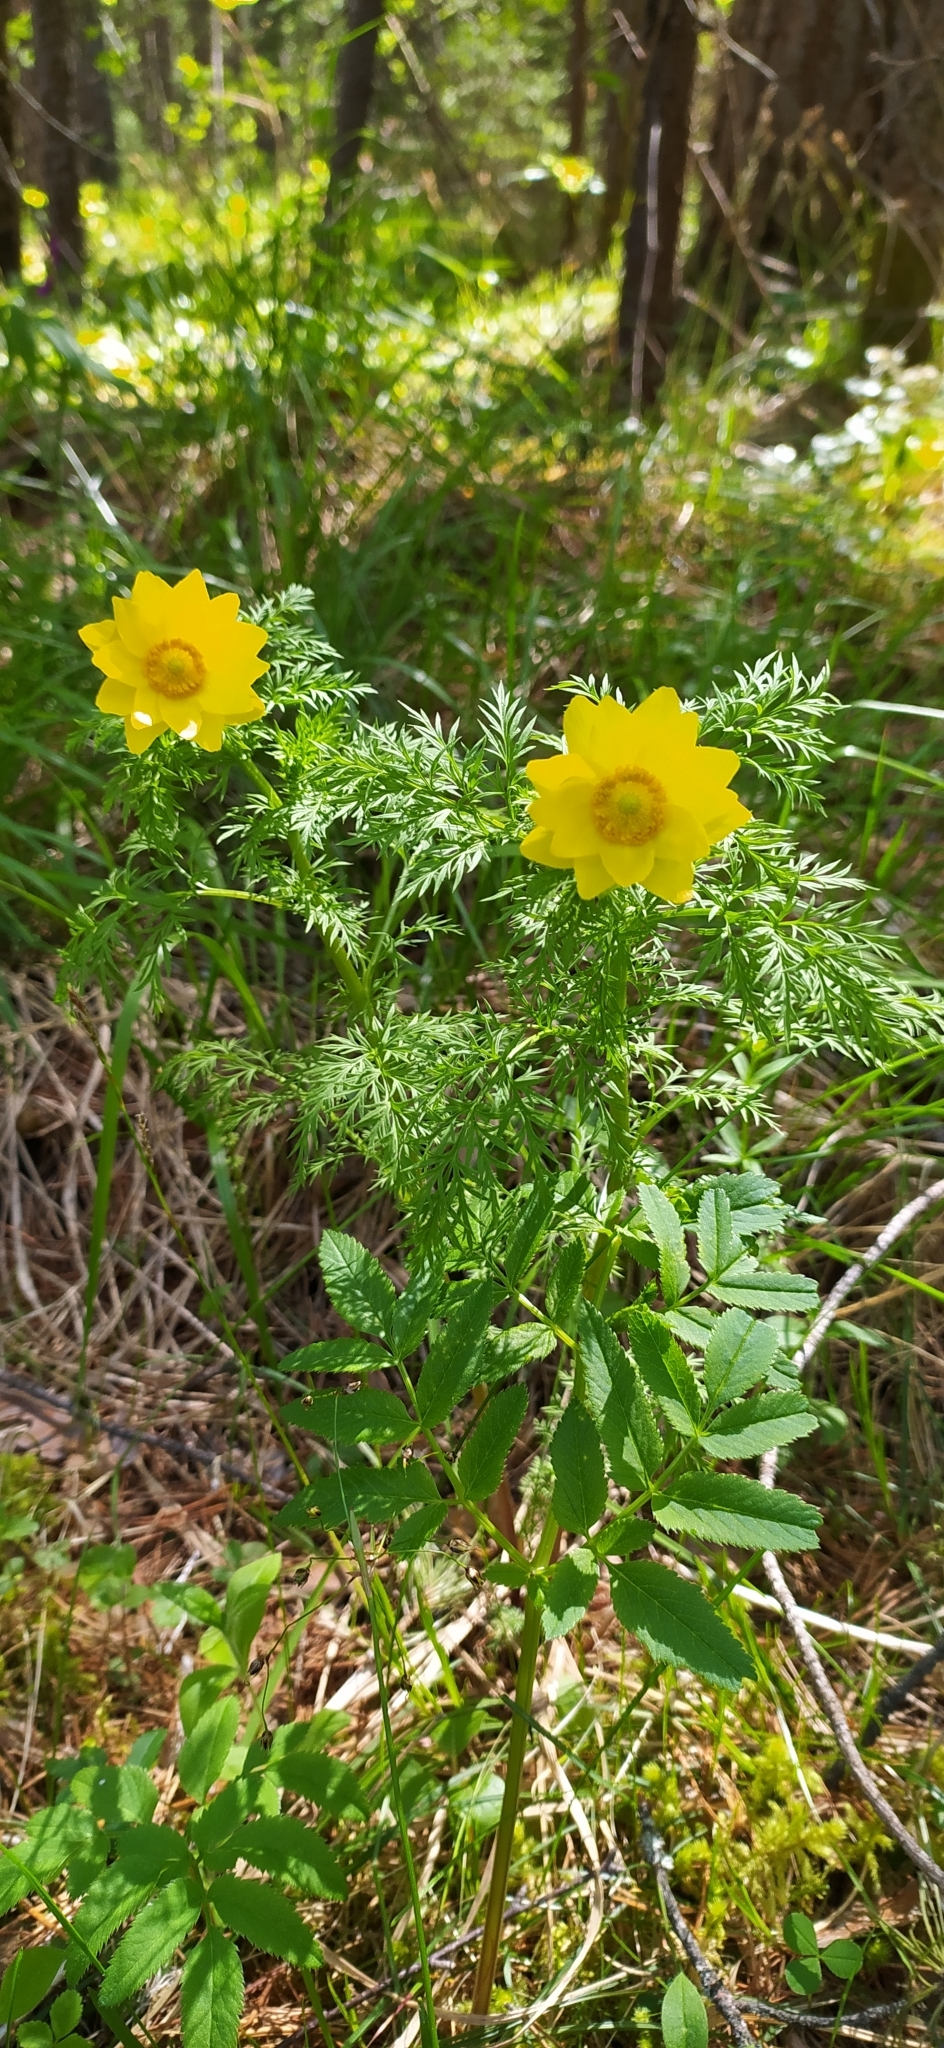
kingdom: Plantae
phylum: Tracheophyta
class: Magnoliopsida
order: Ranunculales
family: Ranunculaceae
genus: Adonis
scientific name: Adonis
